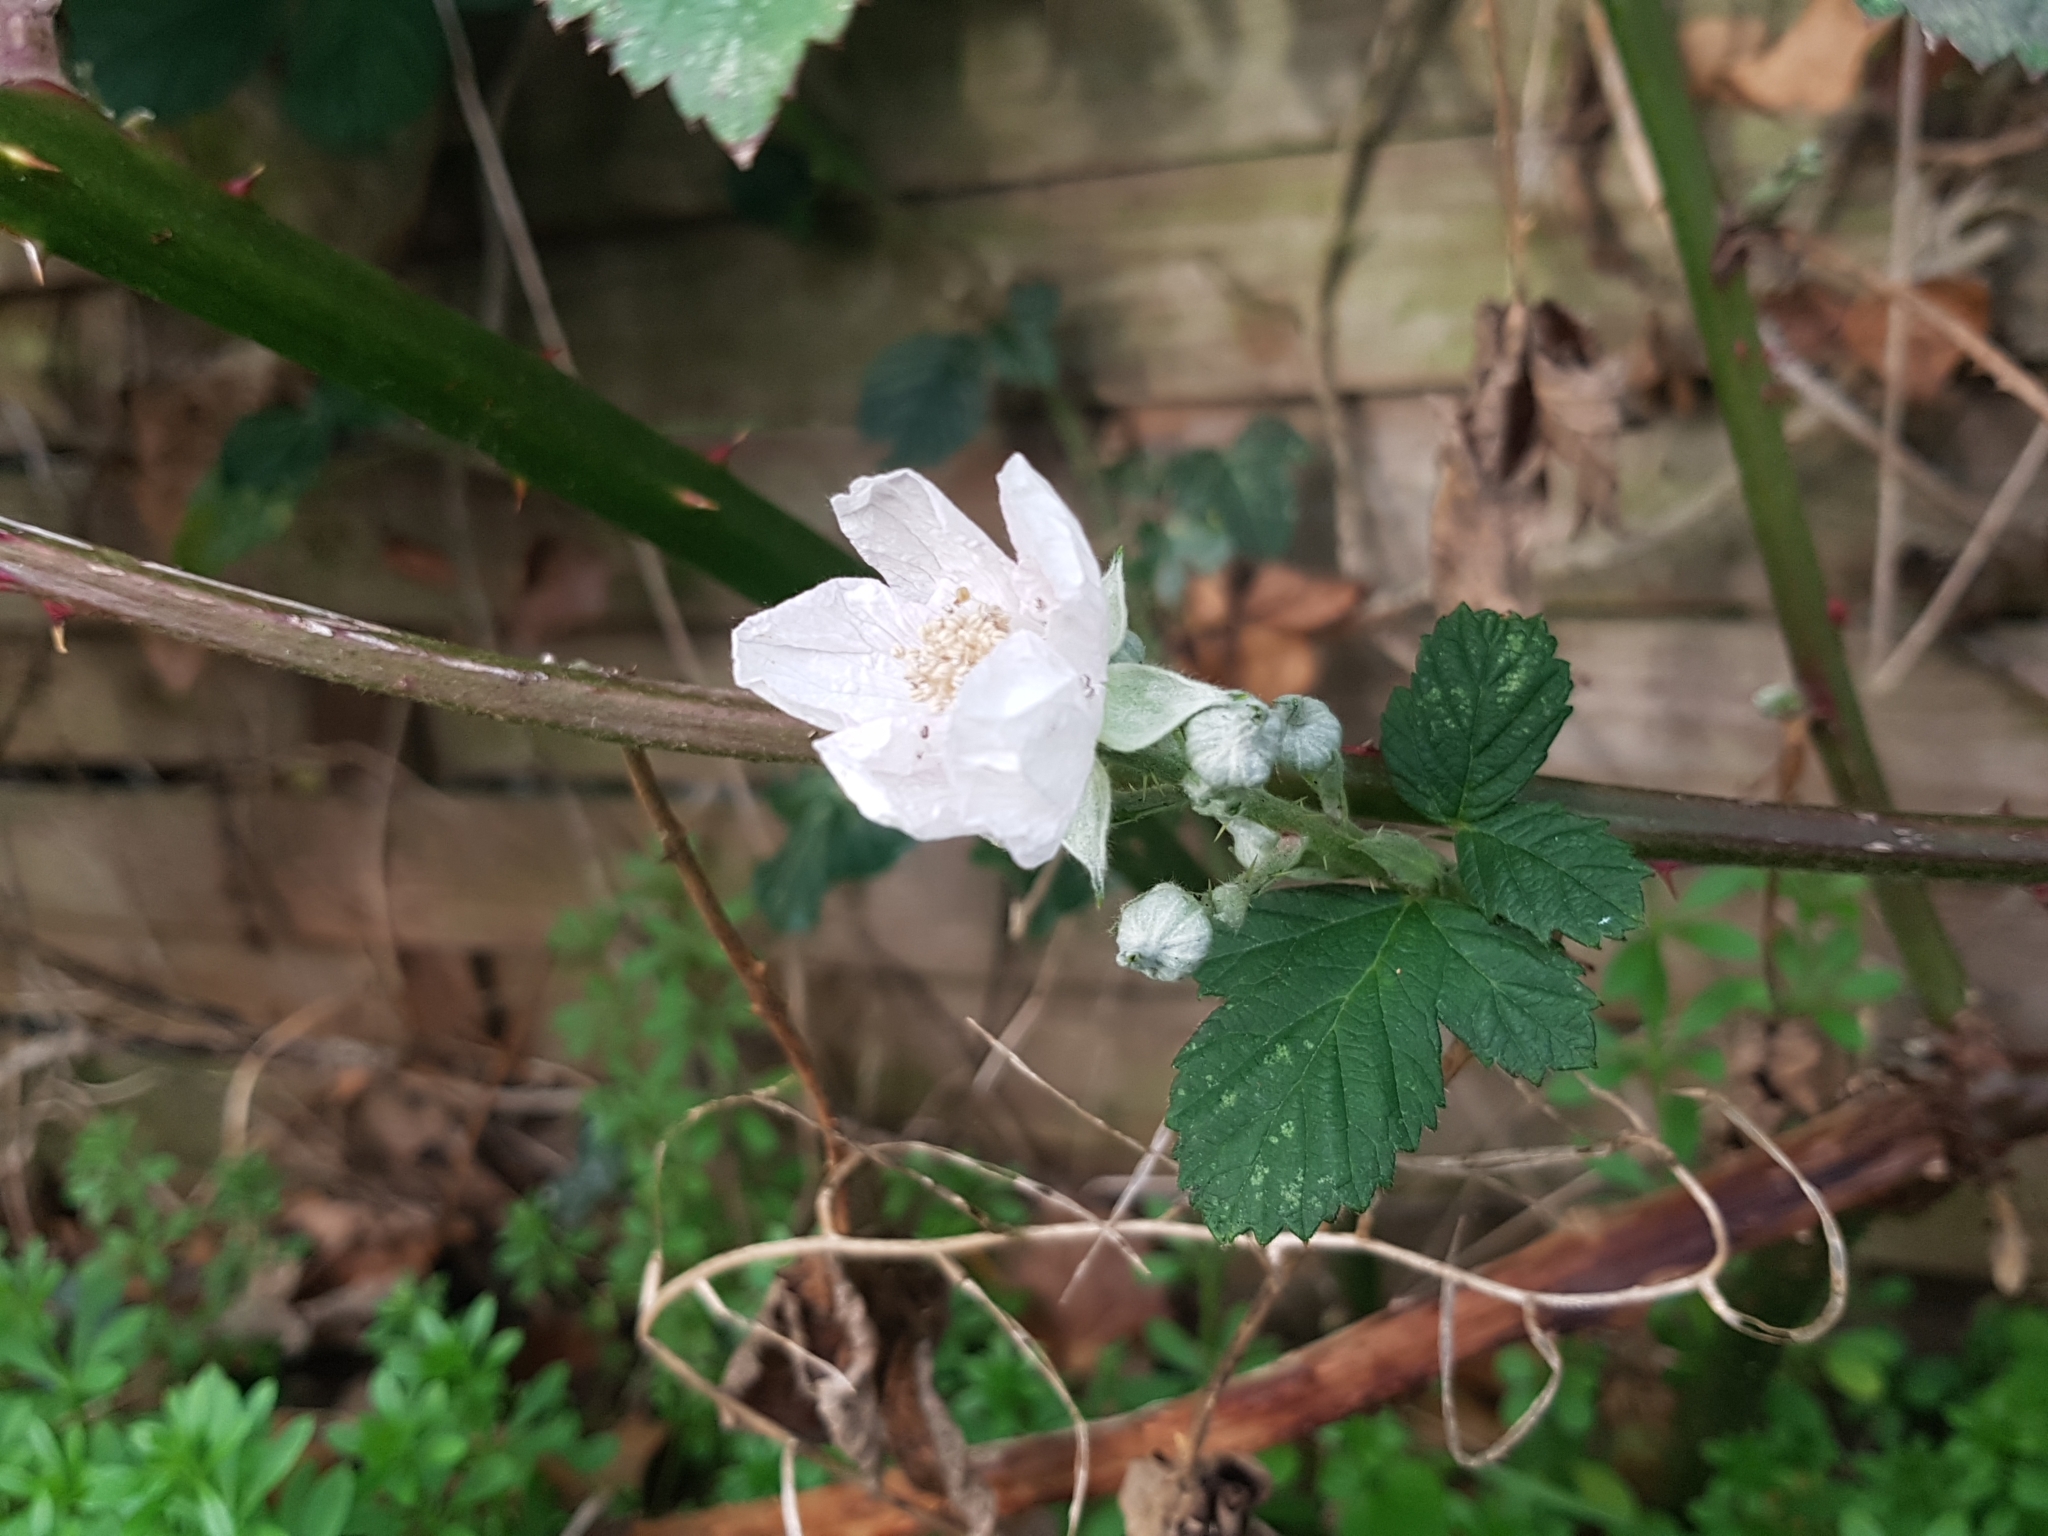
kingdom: Plantae
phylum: Tracheophyta
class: Magnoliopsida
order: Rosales
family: Rosaceae
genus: Rubus
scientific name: Rubus armeniacus
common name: Himalayan blackberry
